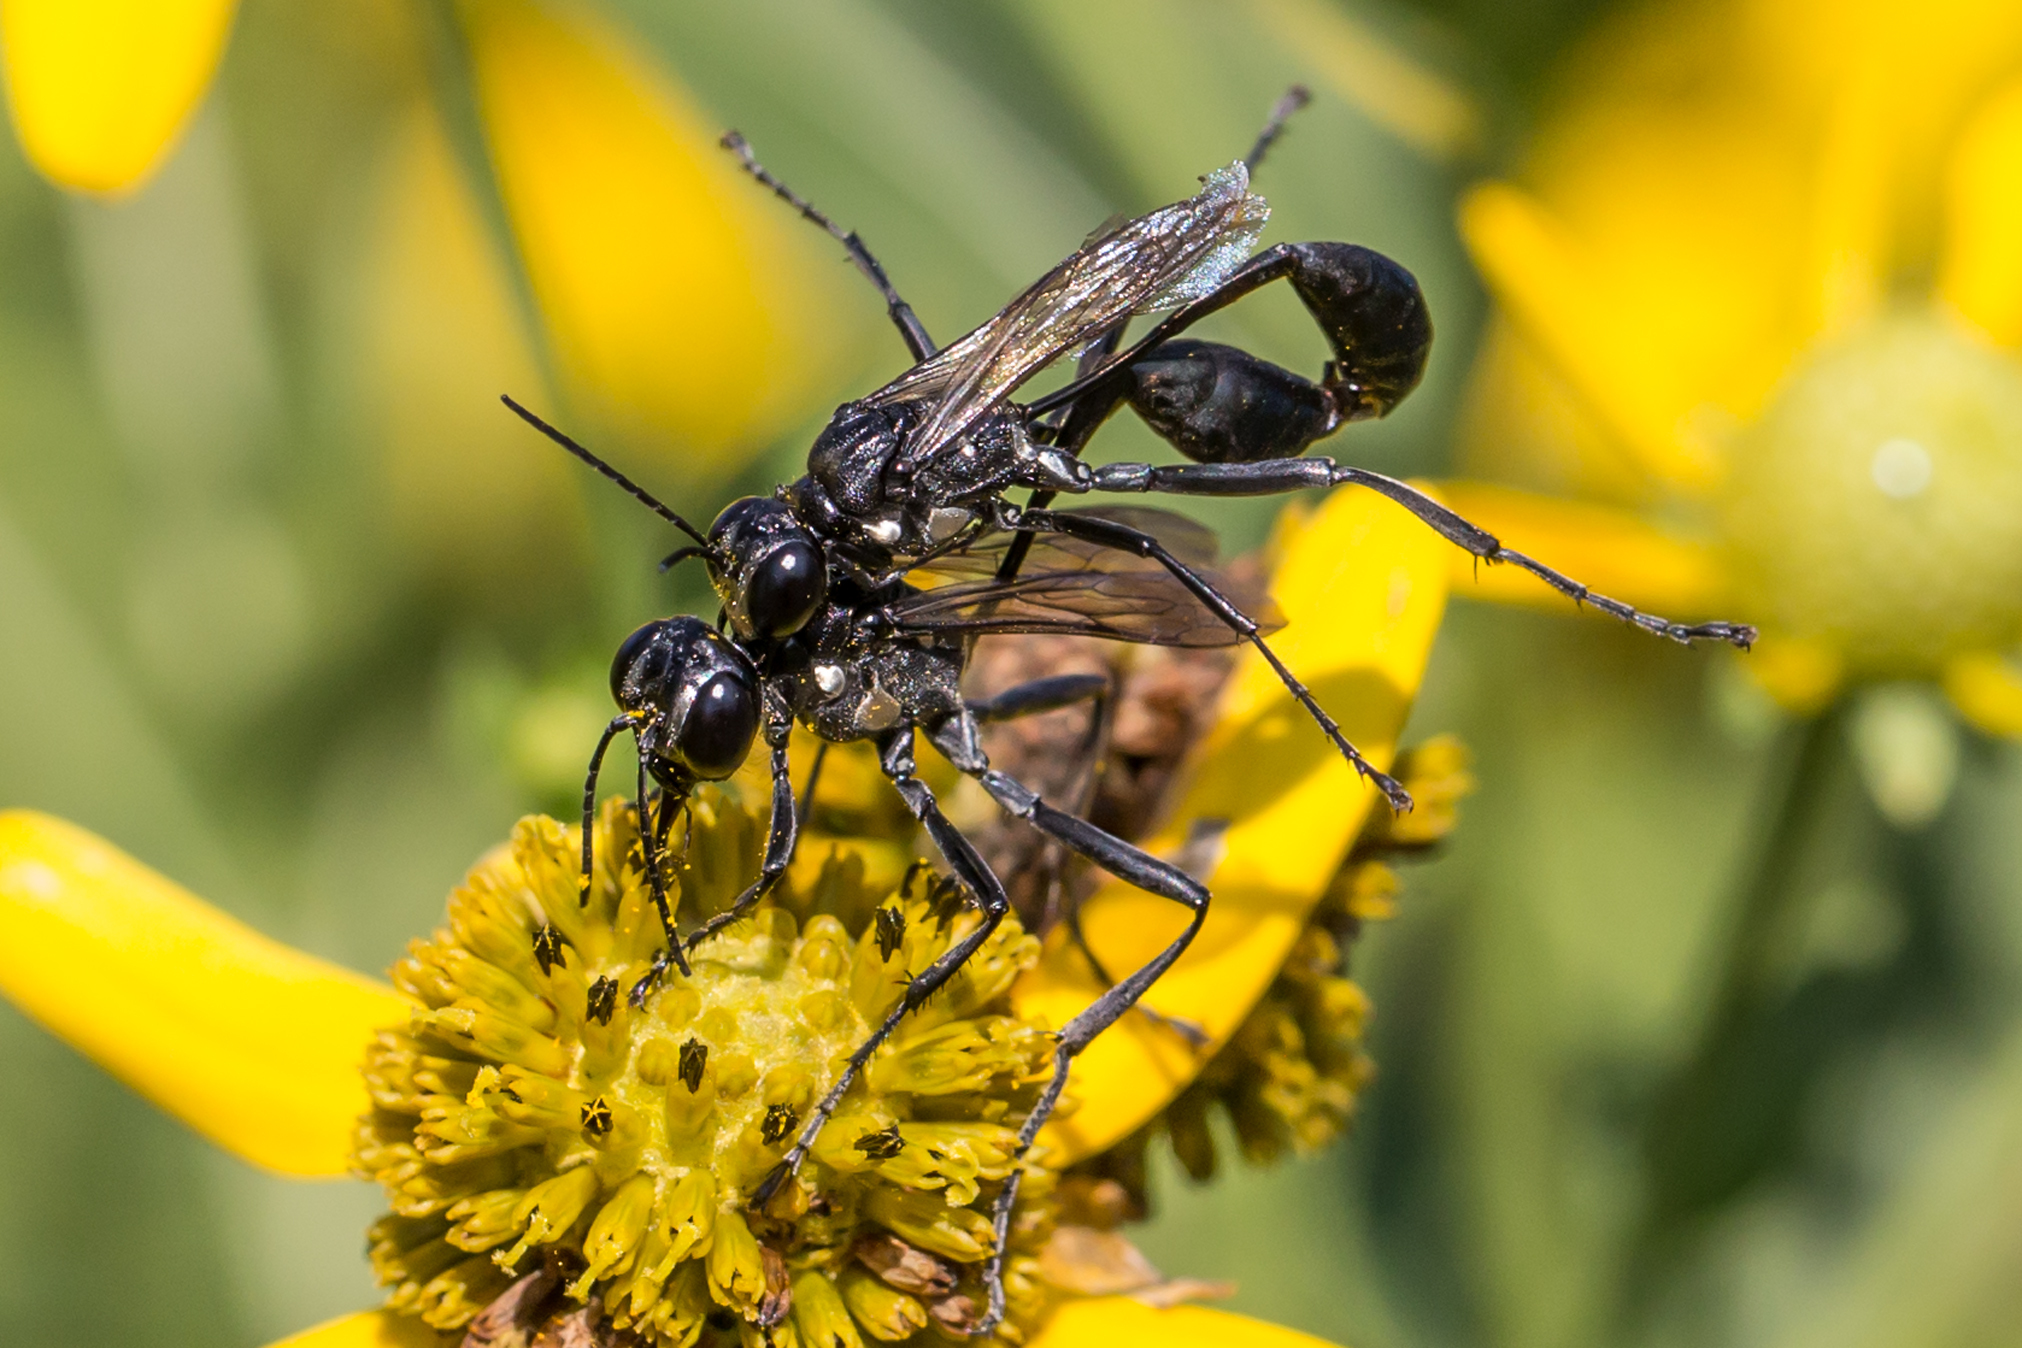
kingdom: Animalia
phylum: Arthropoda
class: Insecta
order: Hymenoptera
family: Sphecidae
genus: Eremnophila
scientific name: Eremnophila aureonotata
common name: Gold-marked thread-waisted wasp
